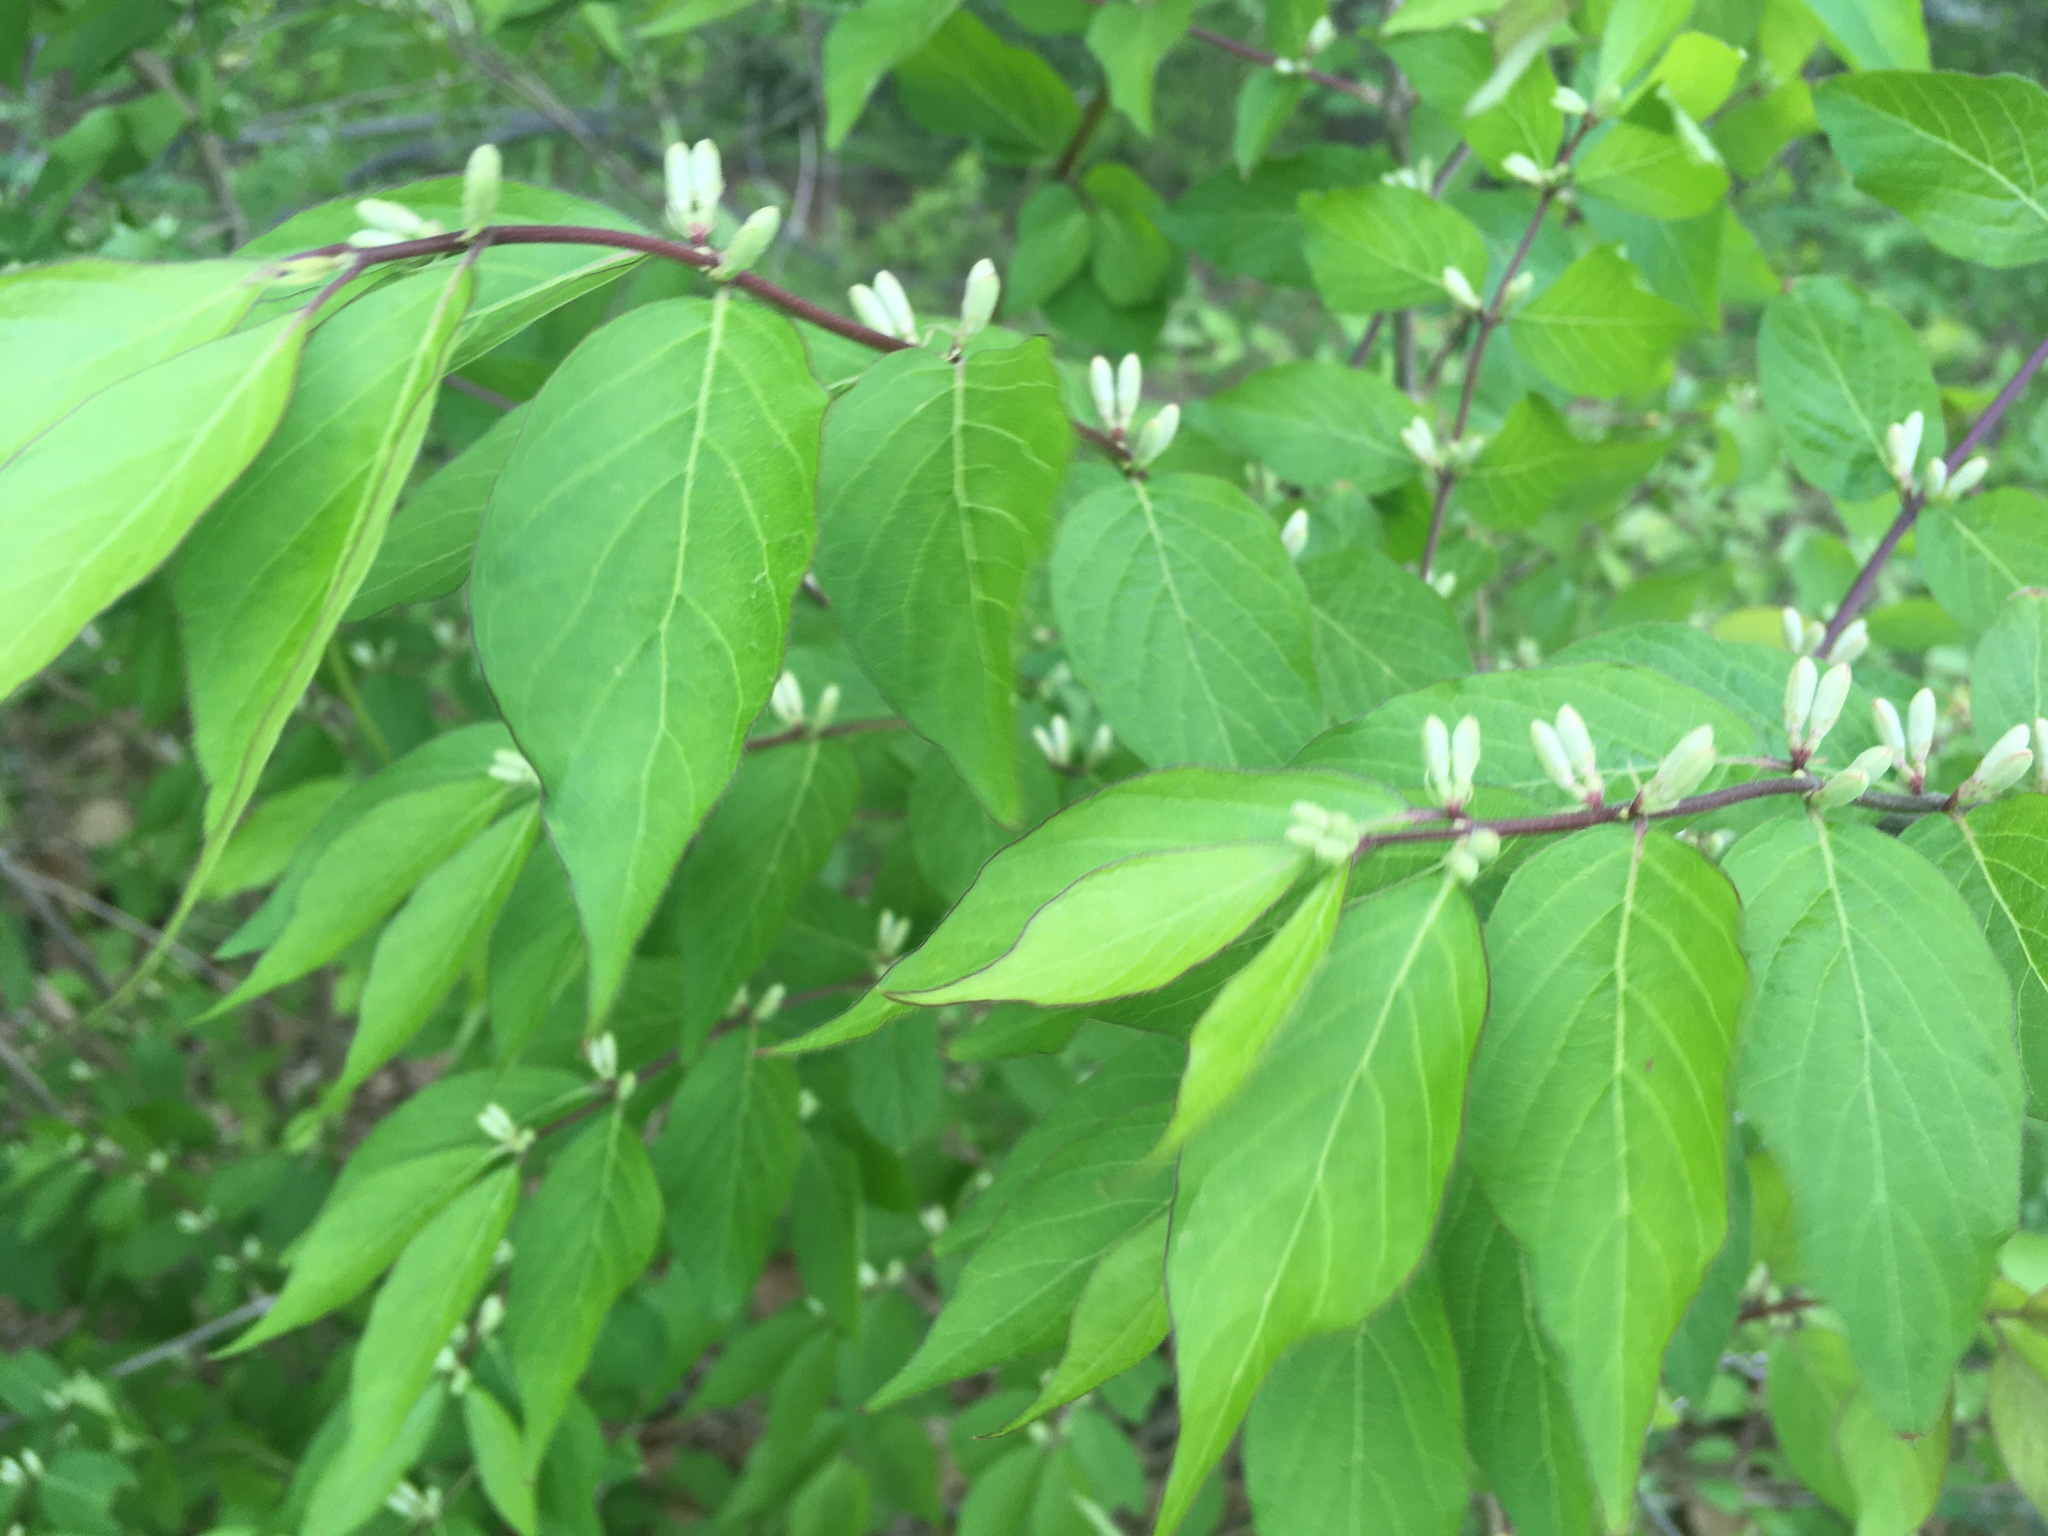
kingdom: Plantae
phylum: Tracheophyta
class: Magnoliopsida
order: Dipsacales
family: Caprifoliaceae
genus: Lonicera
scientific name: Lonicera maackii
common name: Amur honeysuckle
